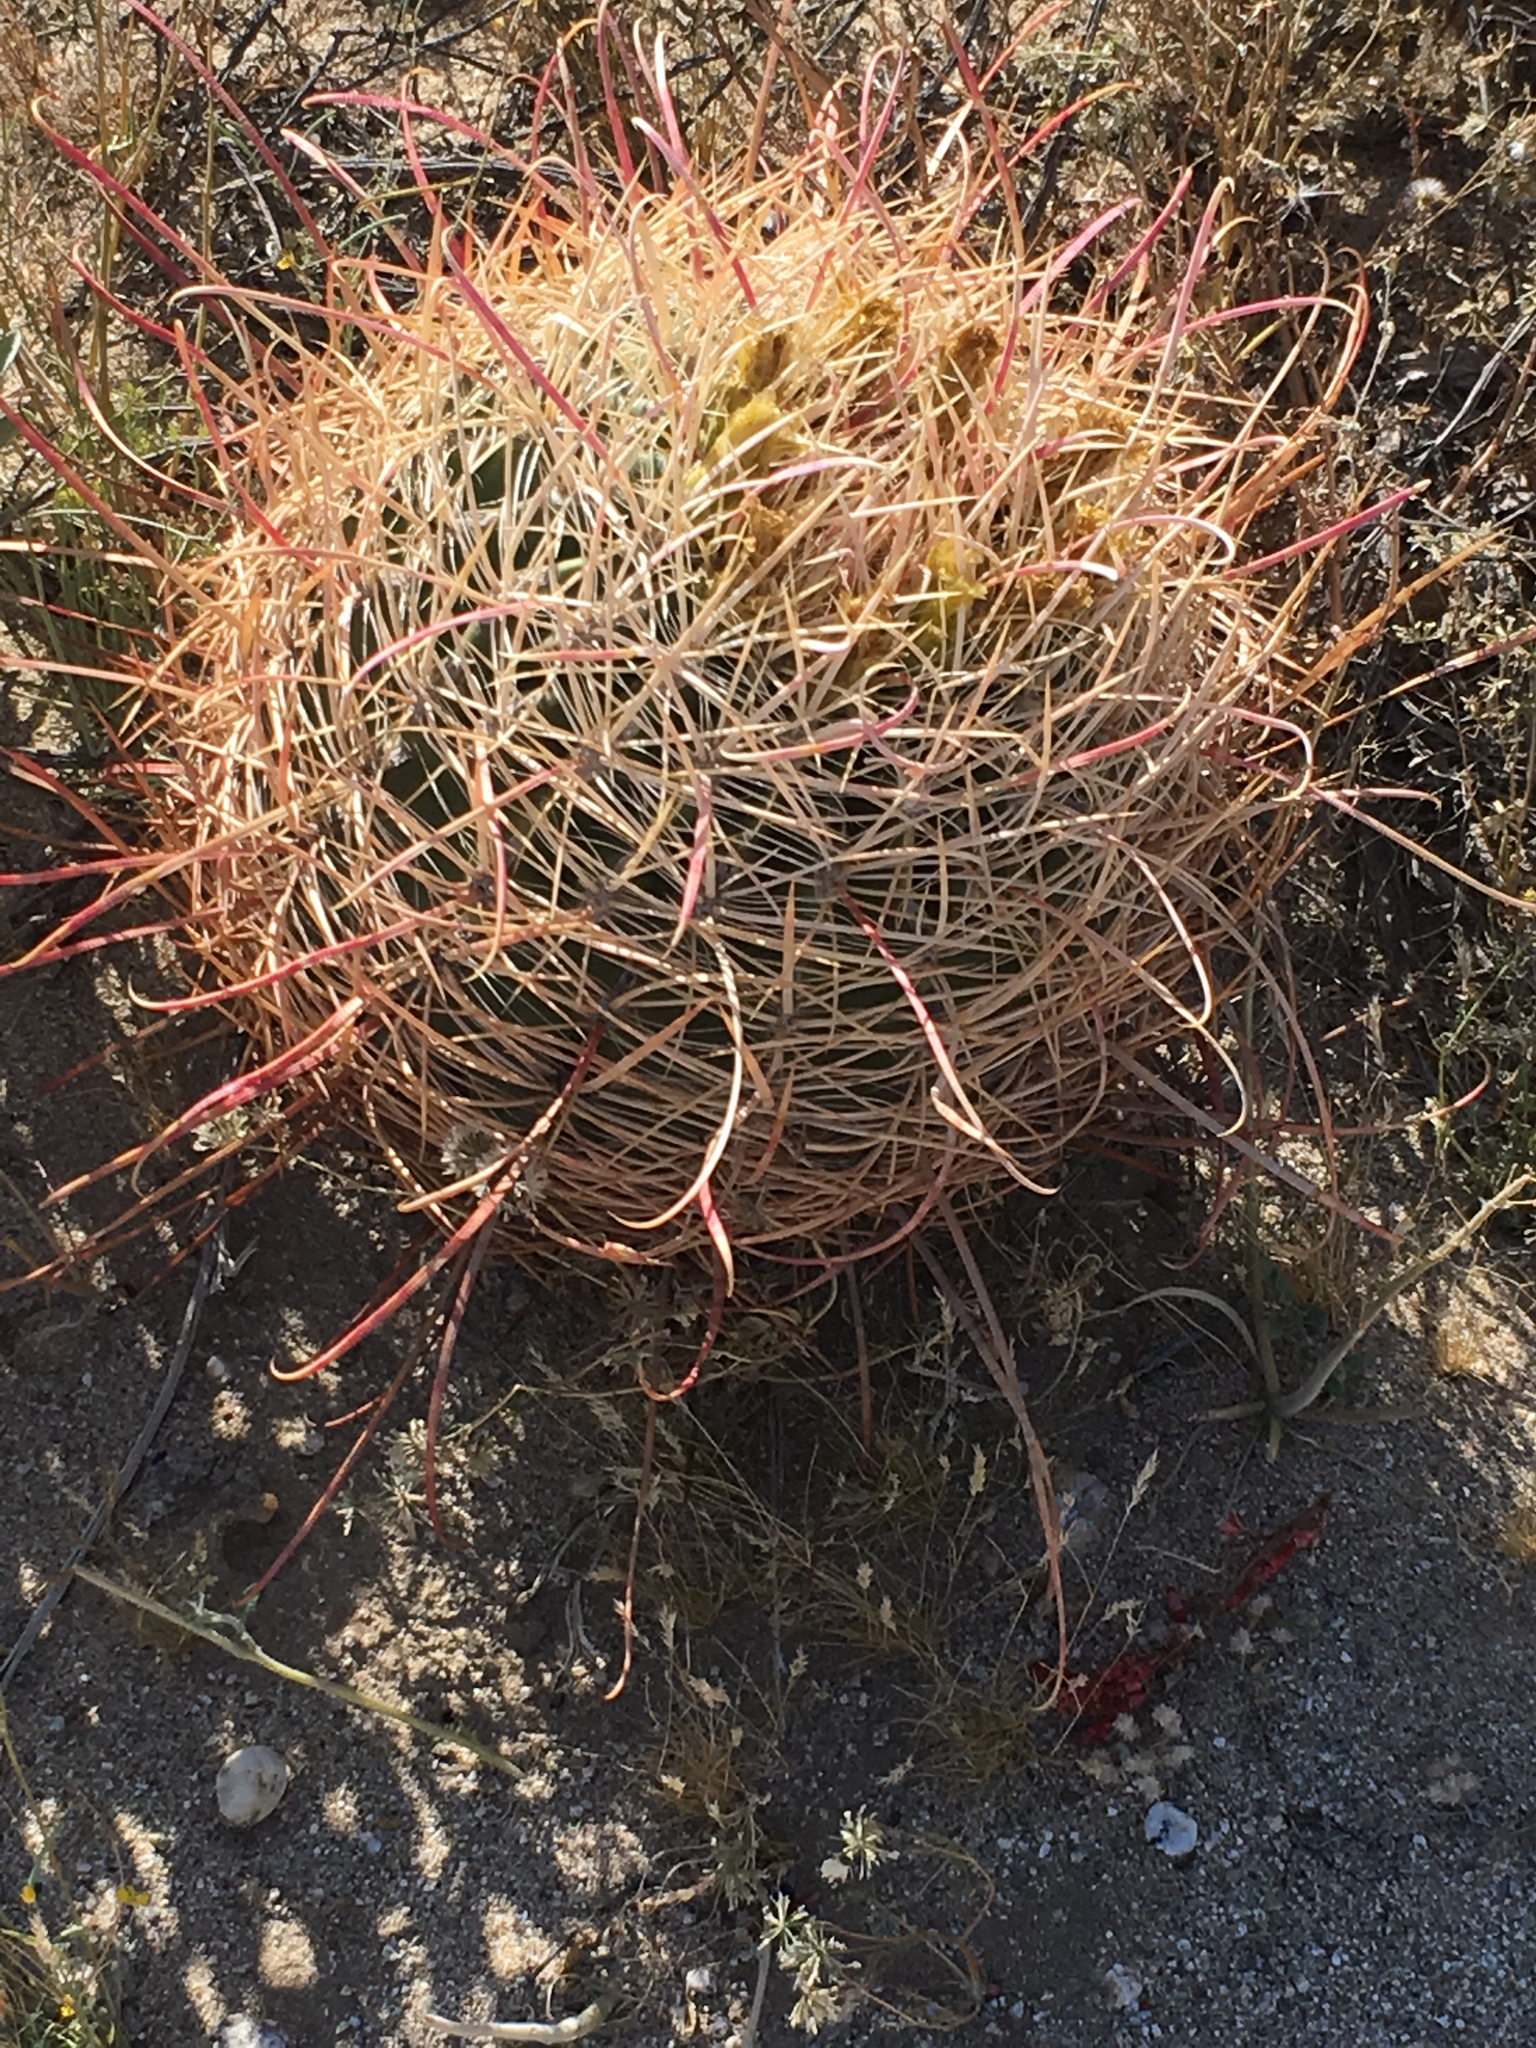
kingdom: Plantae
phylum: Tracheophyta
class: Magnoliopsida
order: Caryophyllales
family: Cactaceae
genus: Ferocactus
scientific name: Ferocactus cylindraceus
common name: California barrel cactus
